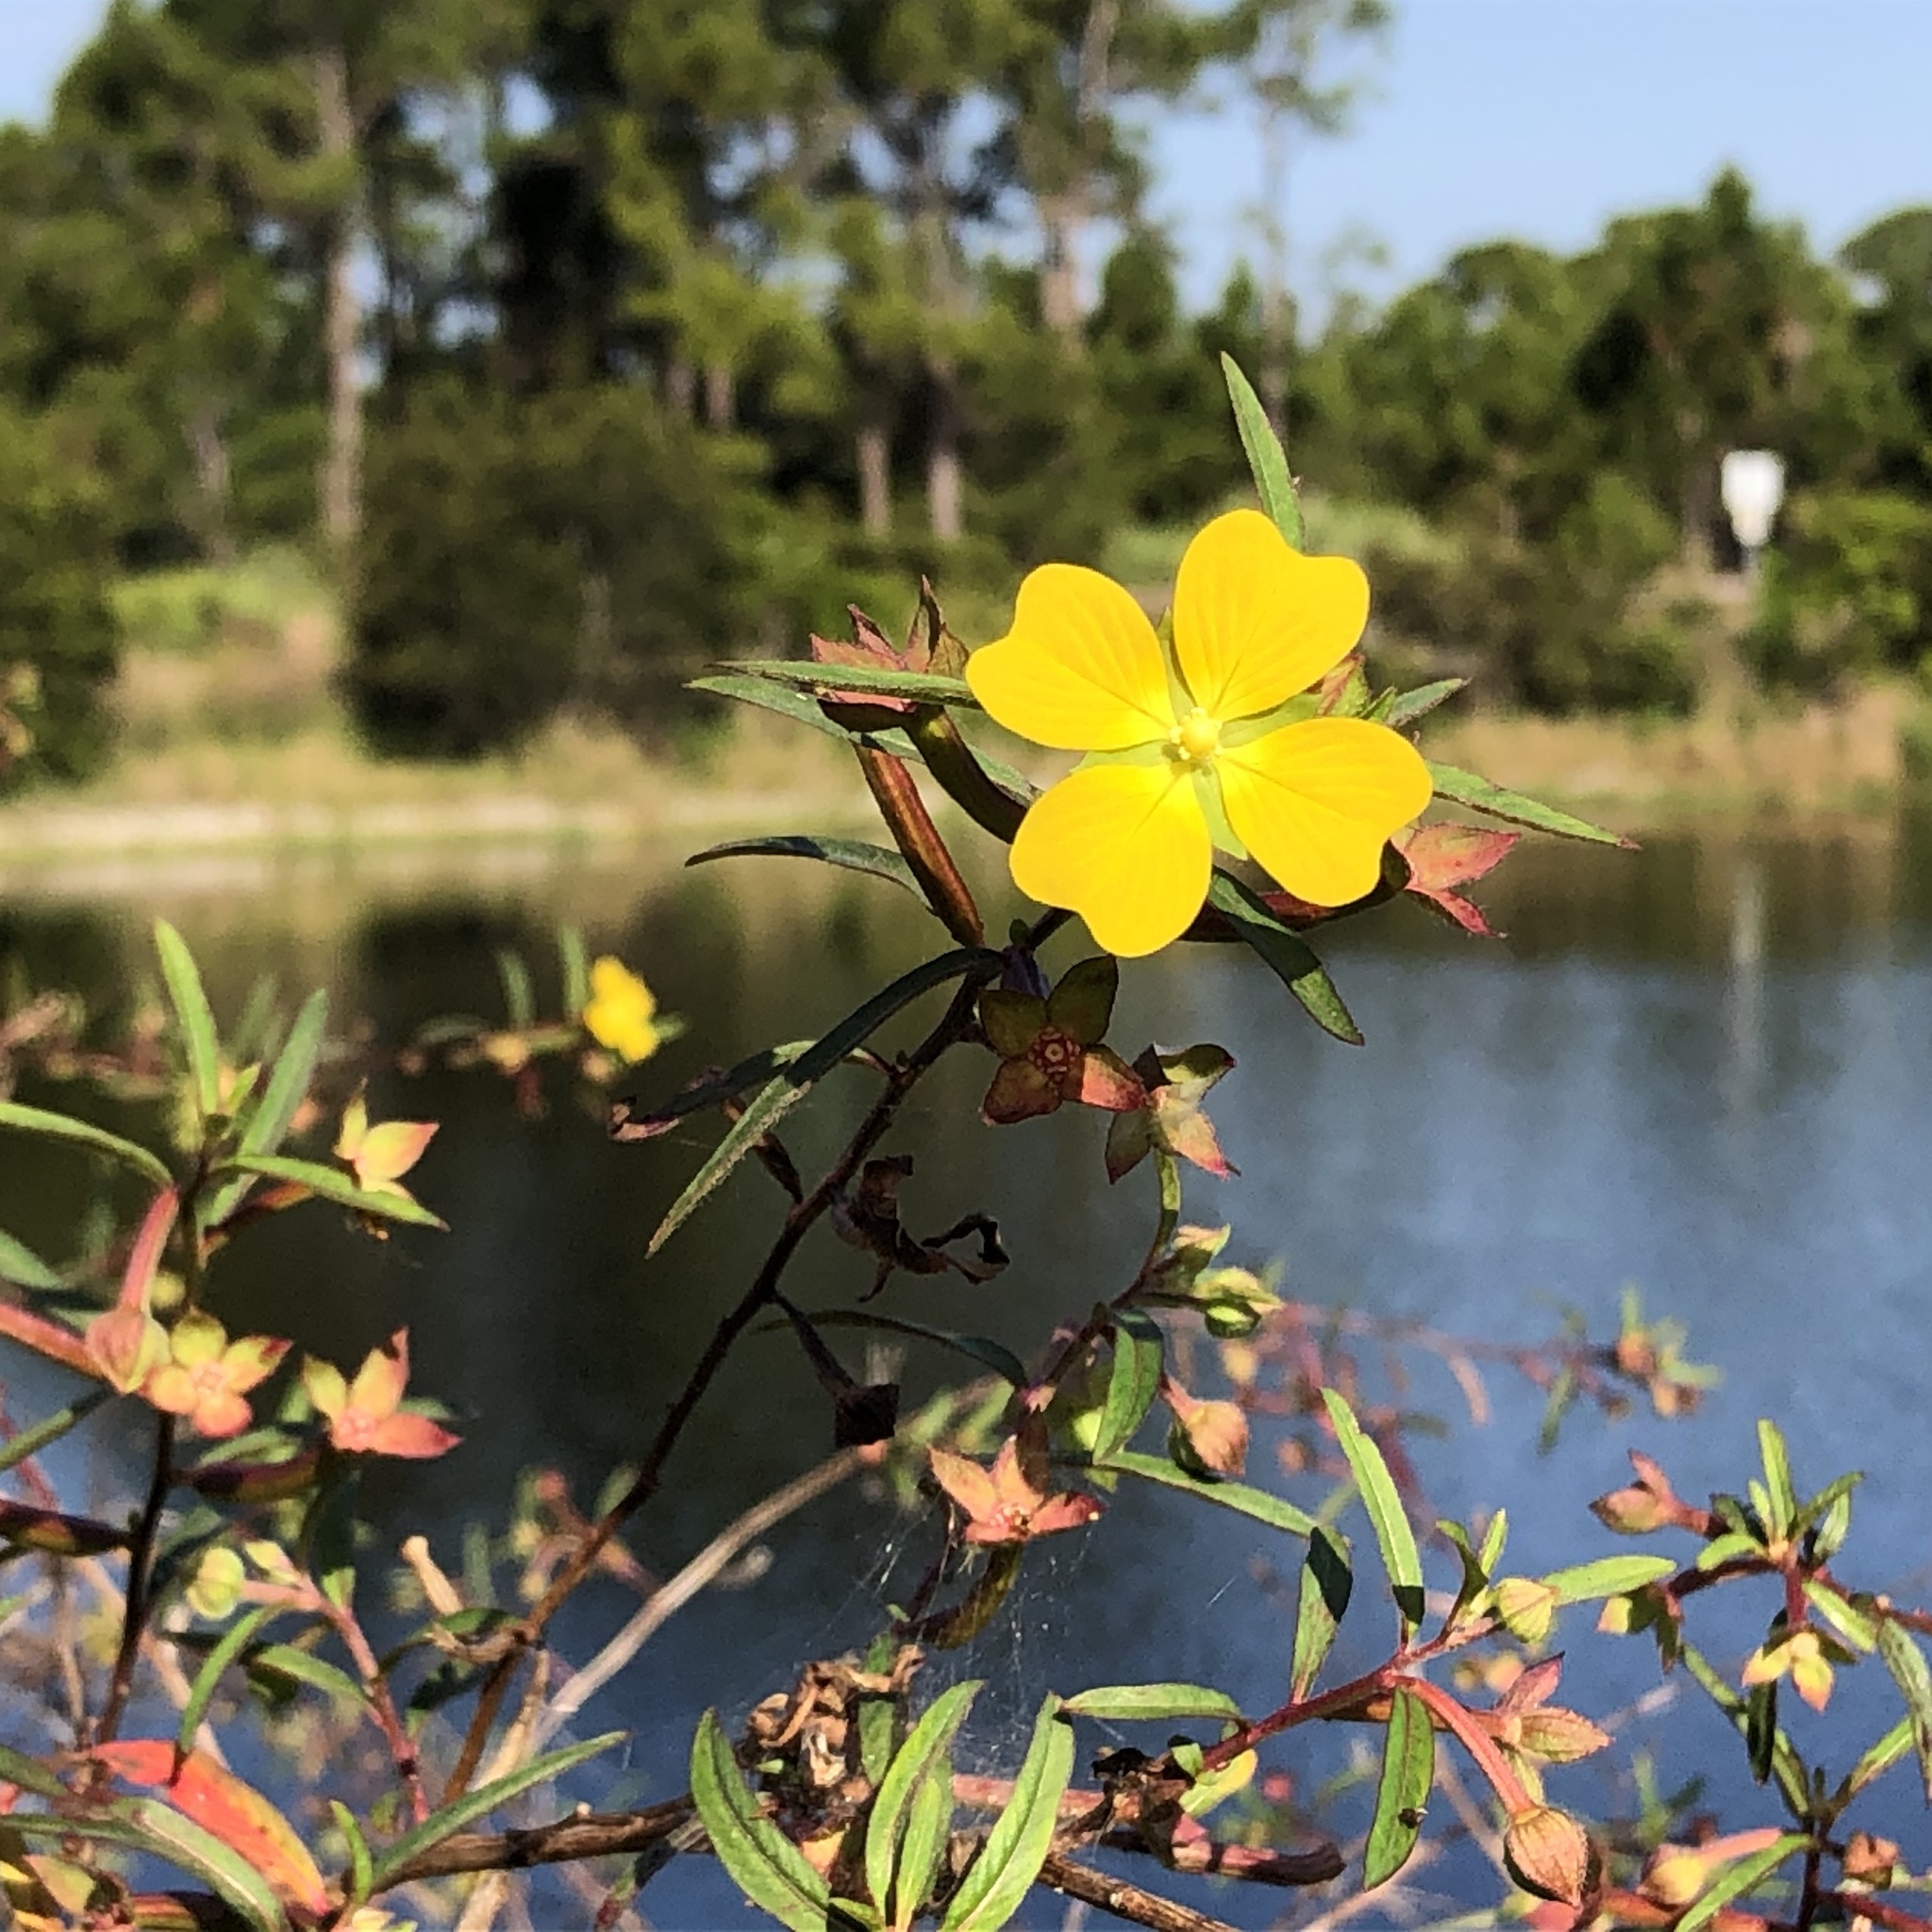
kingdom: Plantae
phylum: Tracheophyta
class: Magnoliopsida
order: Myrtales
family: Onagraceae
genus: Ludwigia
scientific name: Ludwigia octovalvis
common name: Water-primrose
